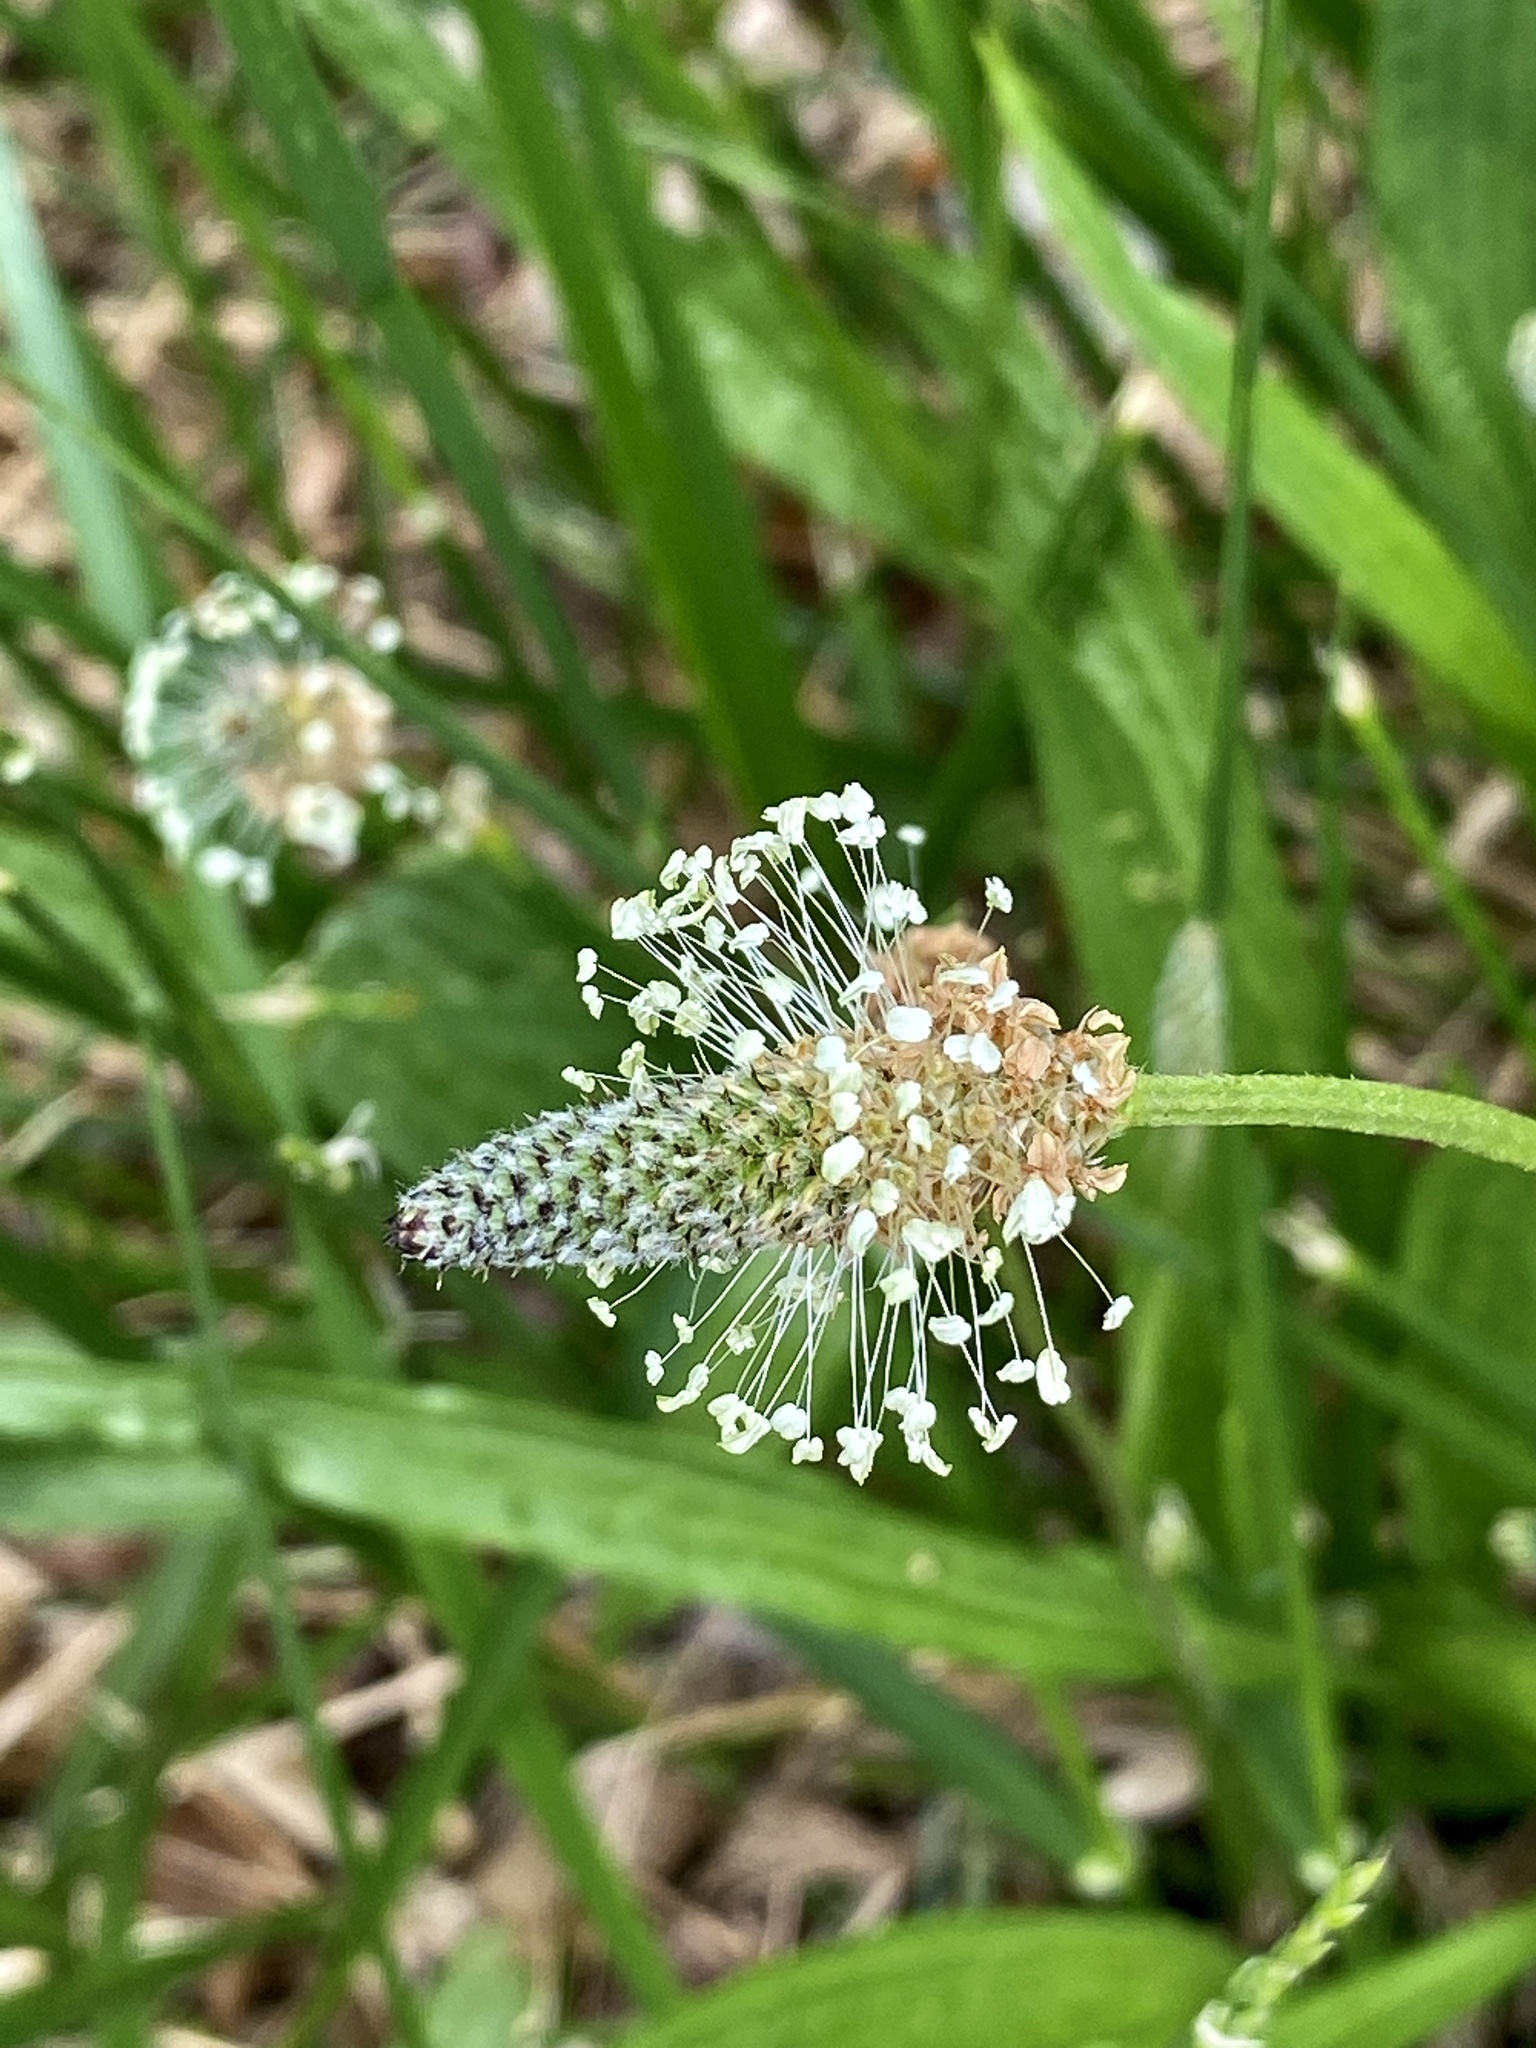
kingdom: Plantae
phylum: Tracheophyta
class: Magnoliopsida
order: Lamiales
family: Plantaginaceae
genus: Plantago
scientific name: Plantago lanceolata
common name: Ribwort plantain
